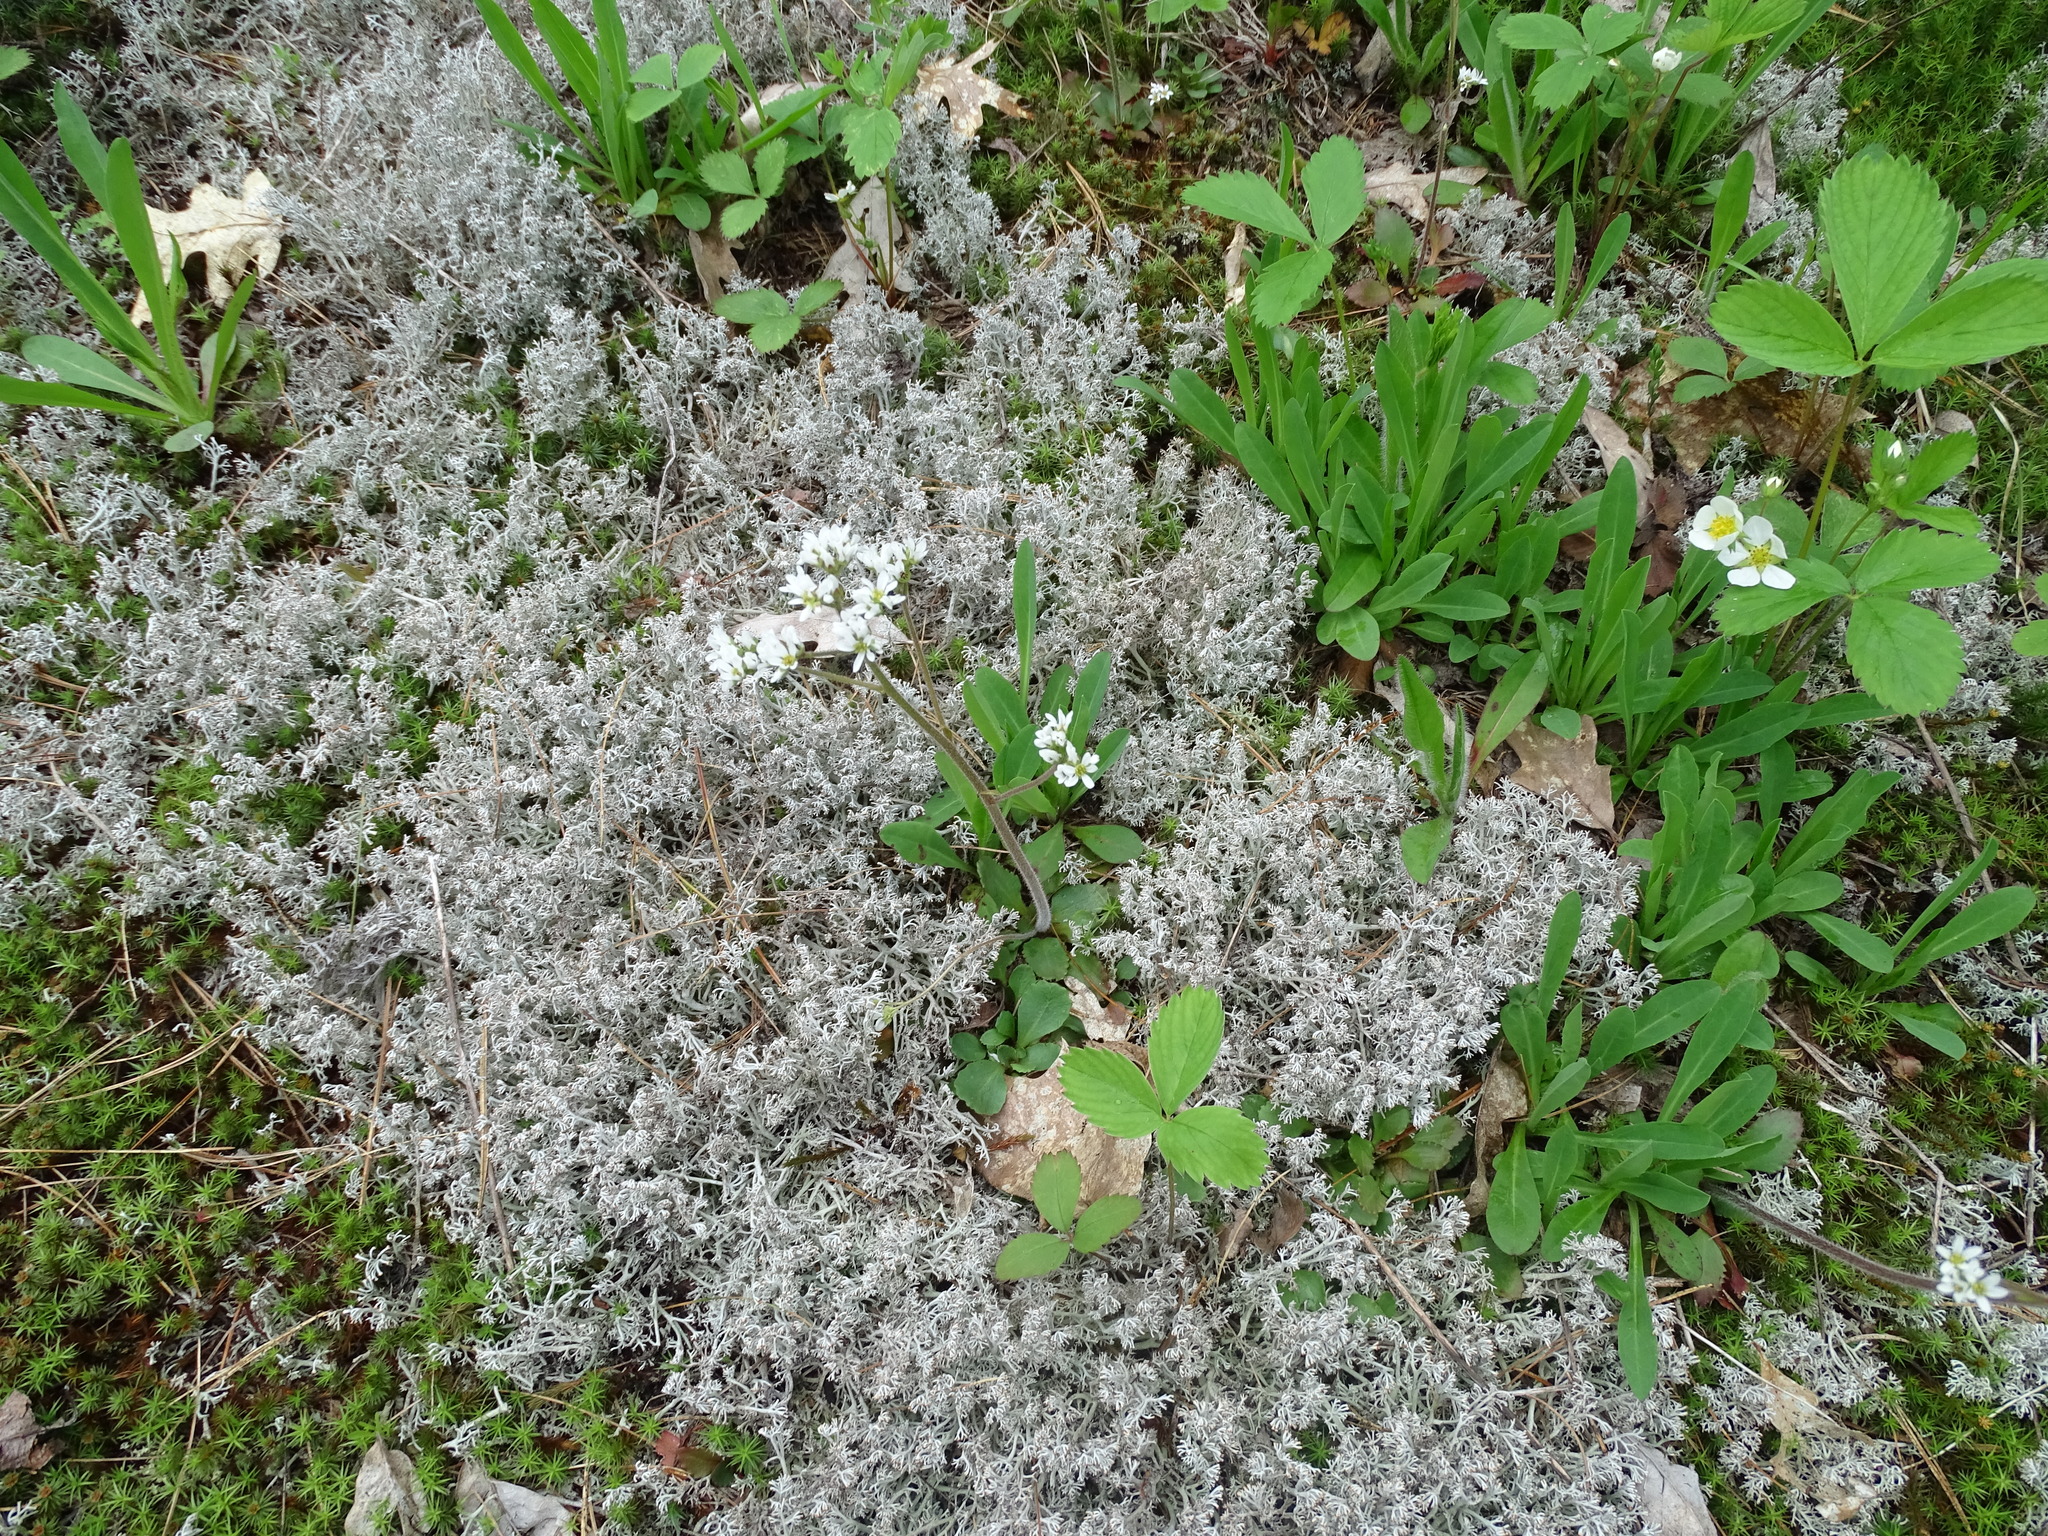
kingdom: Plantae
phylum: Tracheophyta
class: Magnoliopsida
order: Saxifragales
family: Saxifragaceae
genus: Micranthes
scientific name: Micranthes virginiensis
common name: Early saxifrage
